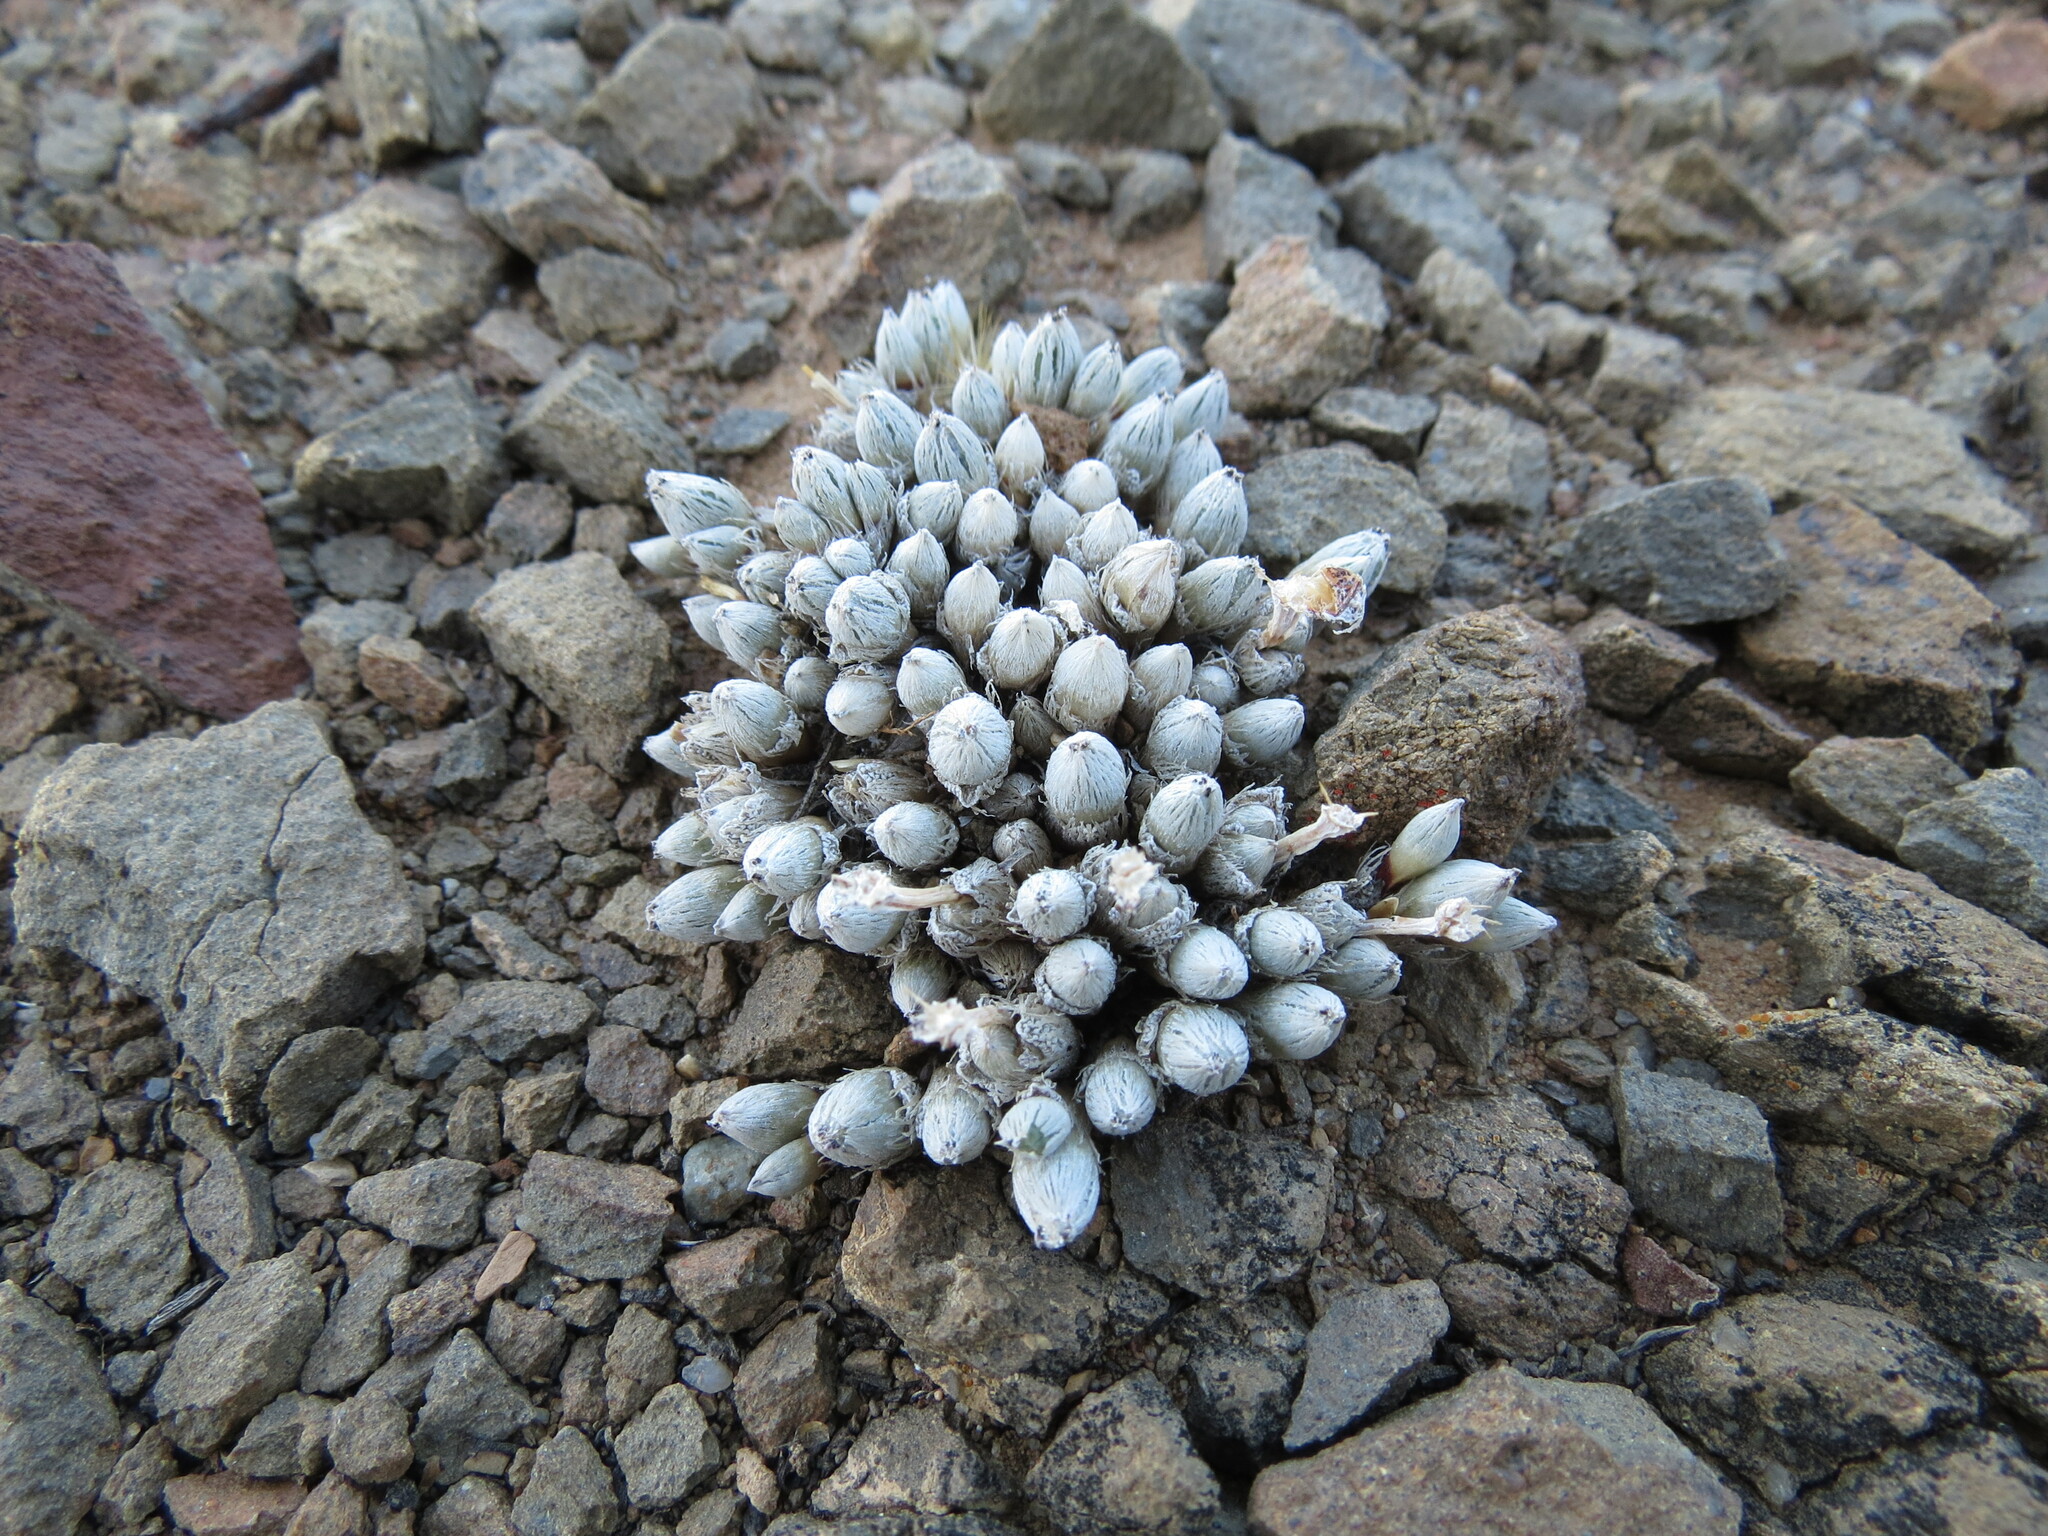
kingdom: Plantae
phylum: Tracheophyta
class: Magnoliopsida
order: Caryophyllales
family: Aizoaceae
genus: Antimima
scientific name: Antimima pygmaea
